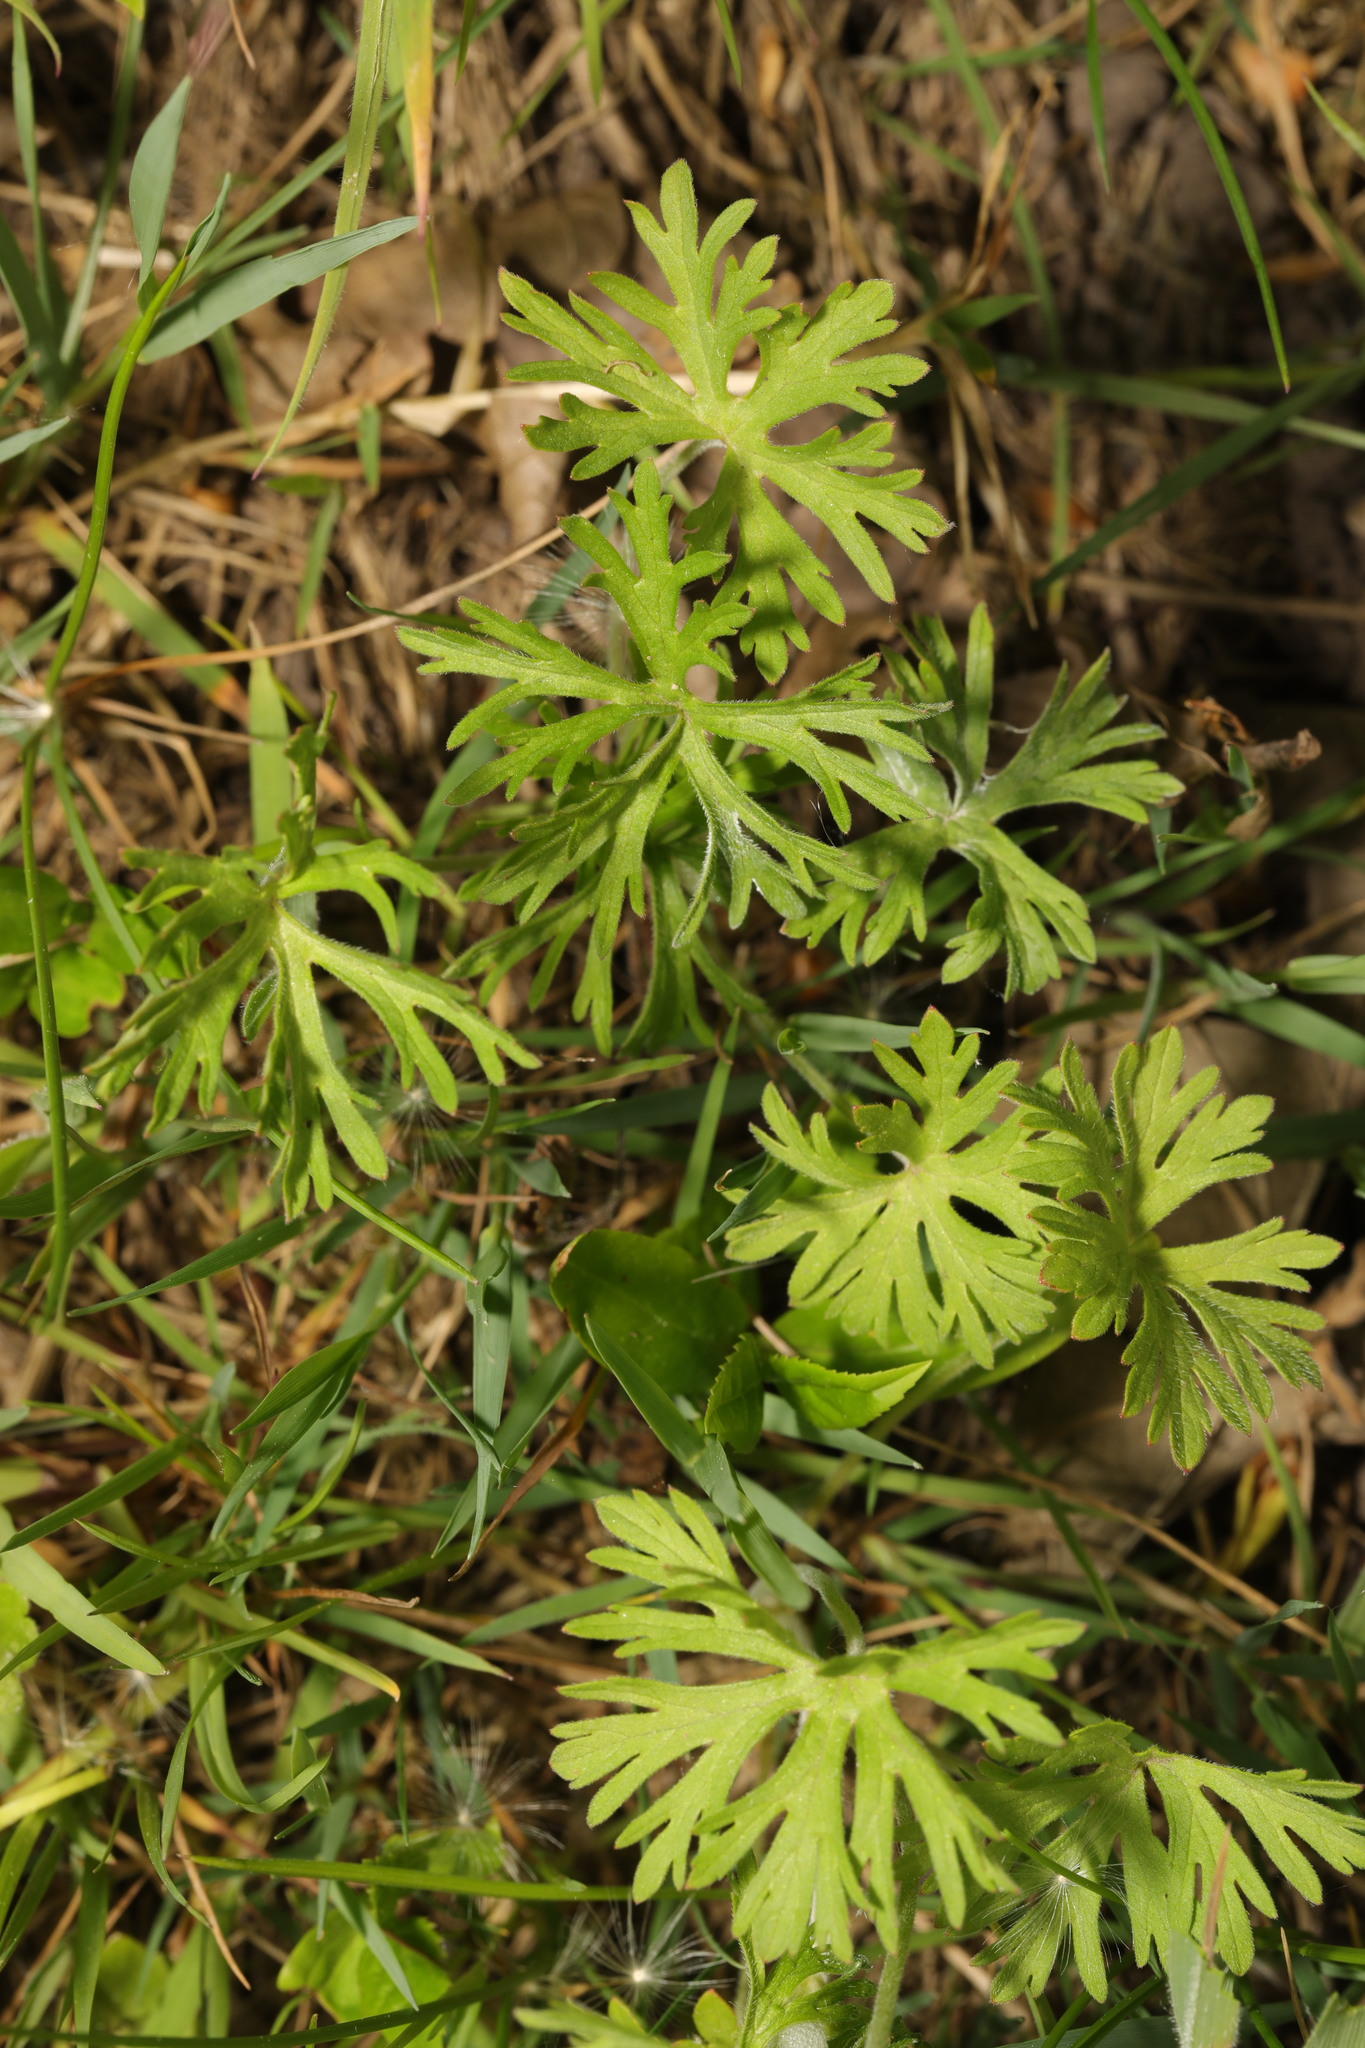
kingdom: Plantae
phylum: Tracheophyta
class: Magnoliopsida
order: Geraniales
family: Geraniaceae
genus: Geranium
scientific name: Geranium dissectum
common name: Cut-leaved crane's-bill
